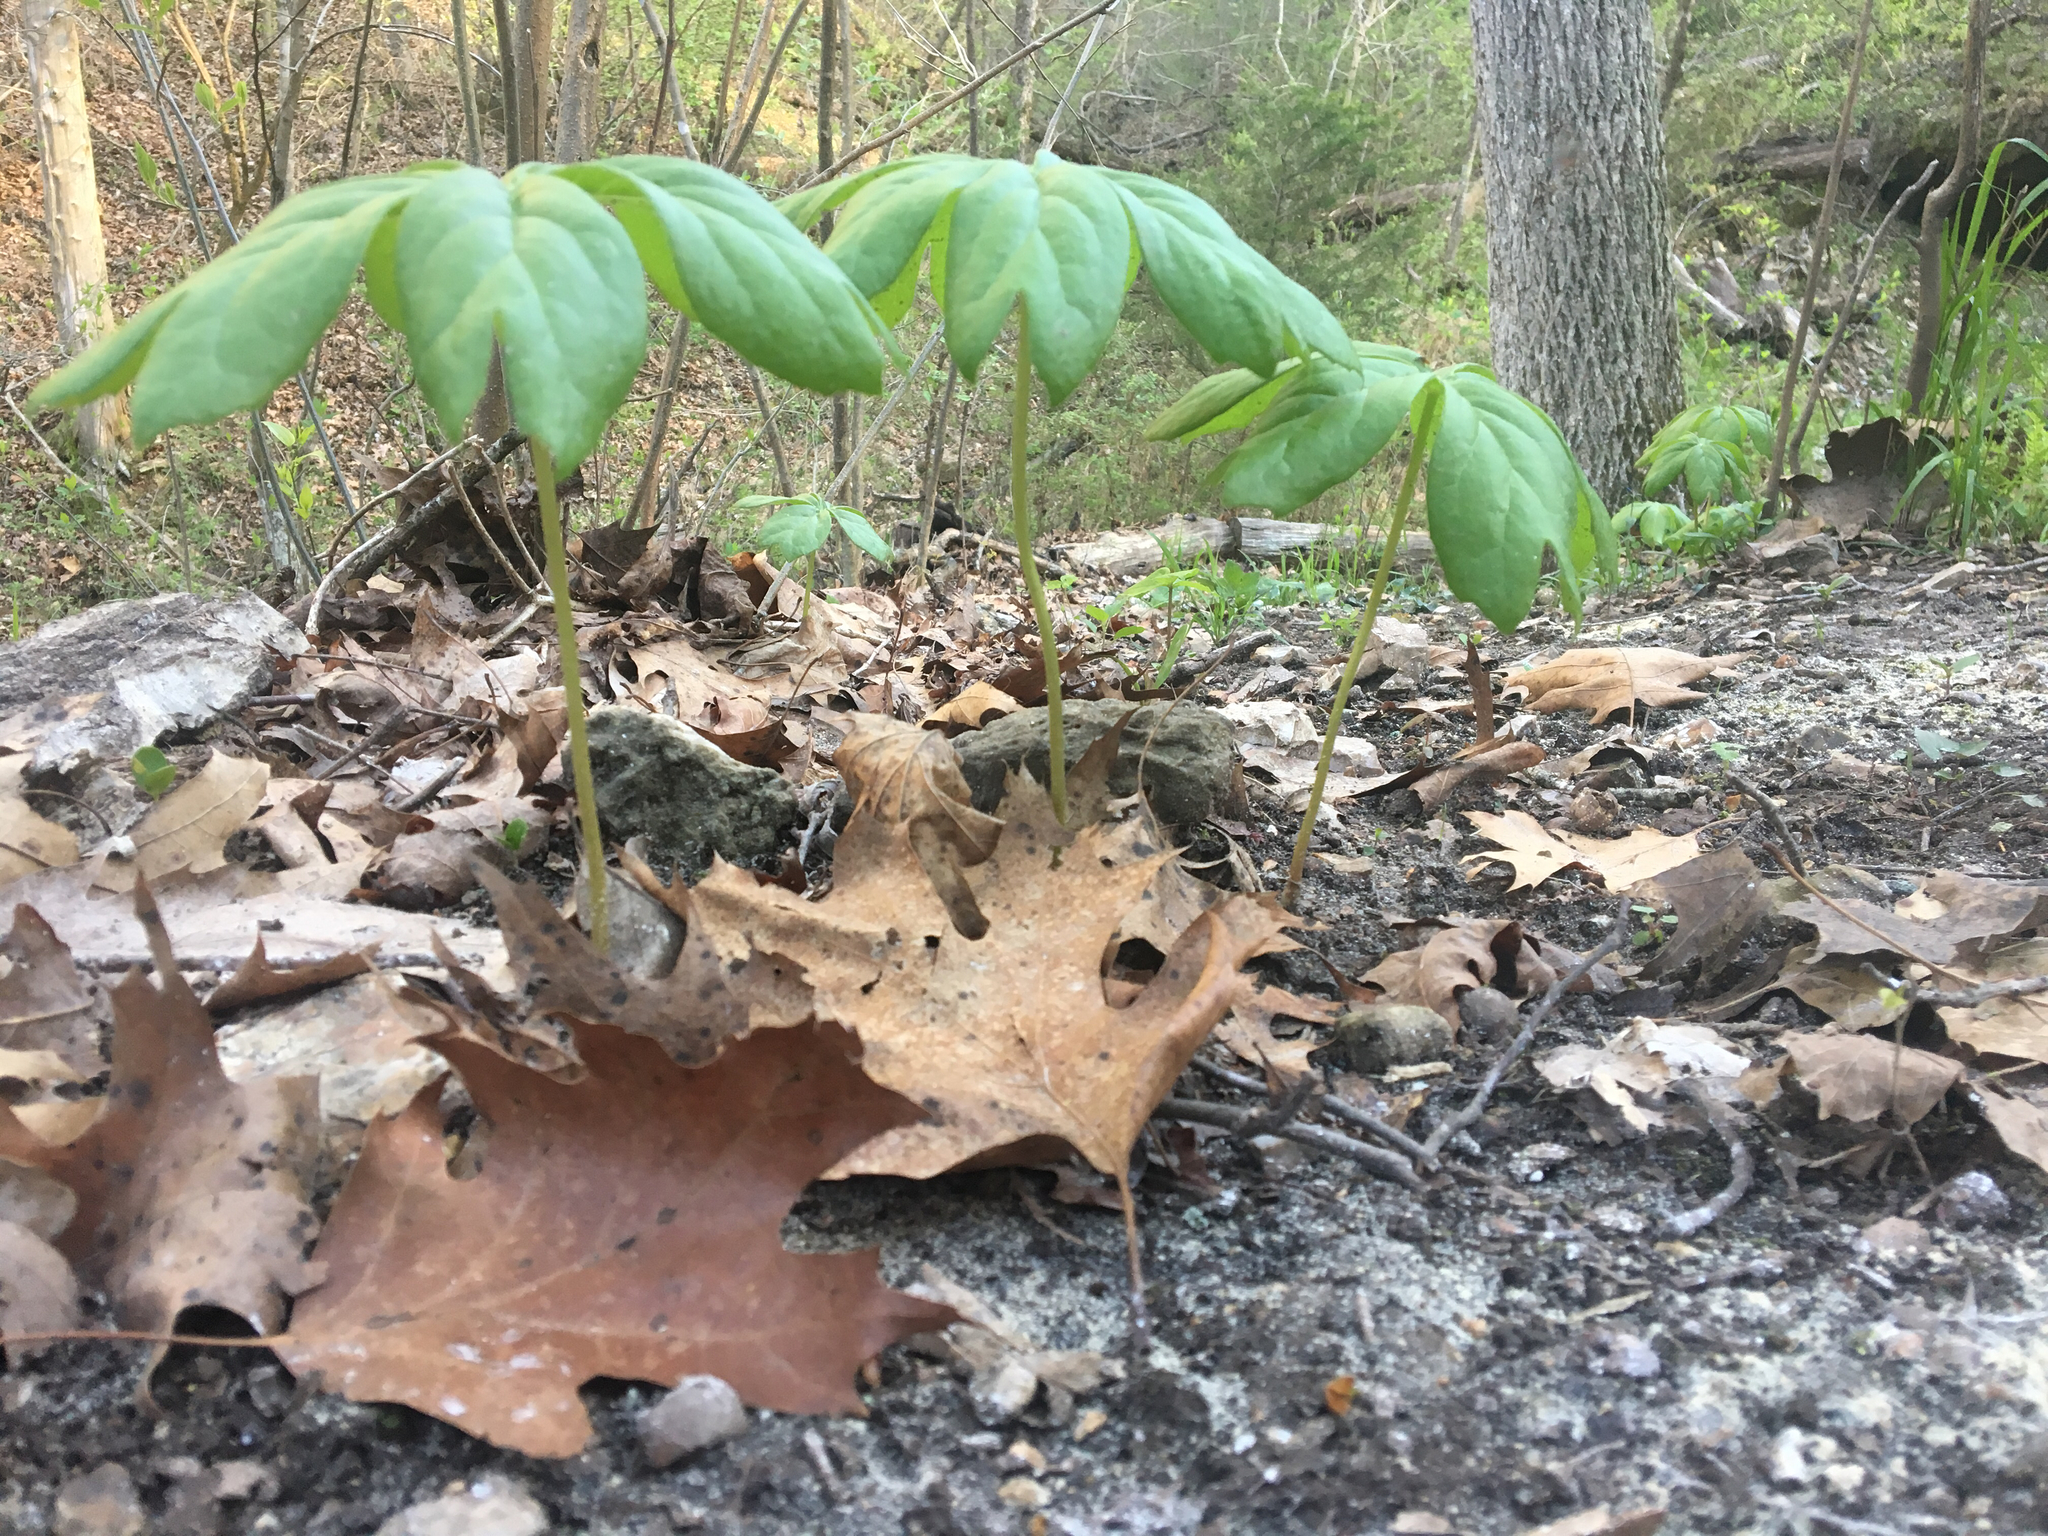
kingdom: Plantae
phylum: Tracheophyta
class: Magnoliopsida
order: Ranunculales
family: Berberidaceae
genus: Podophyllum
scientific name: Podophyllum peltatum
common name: Wild mandrake
